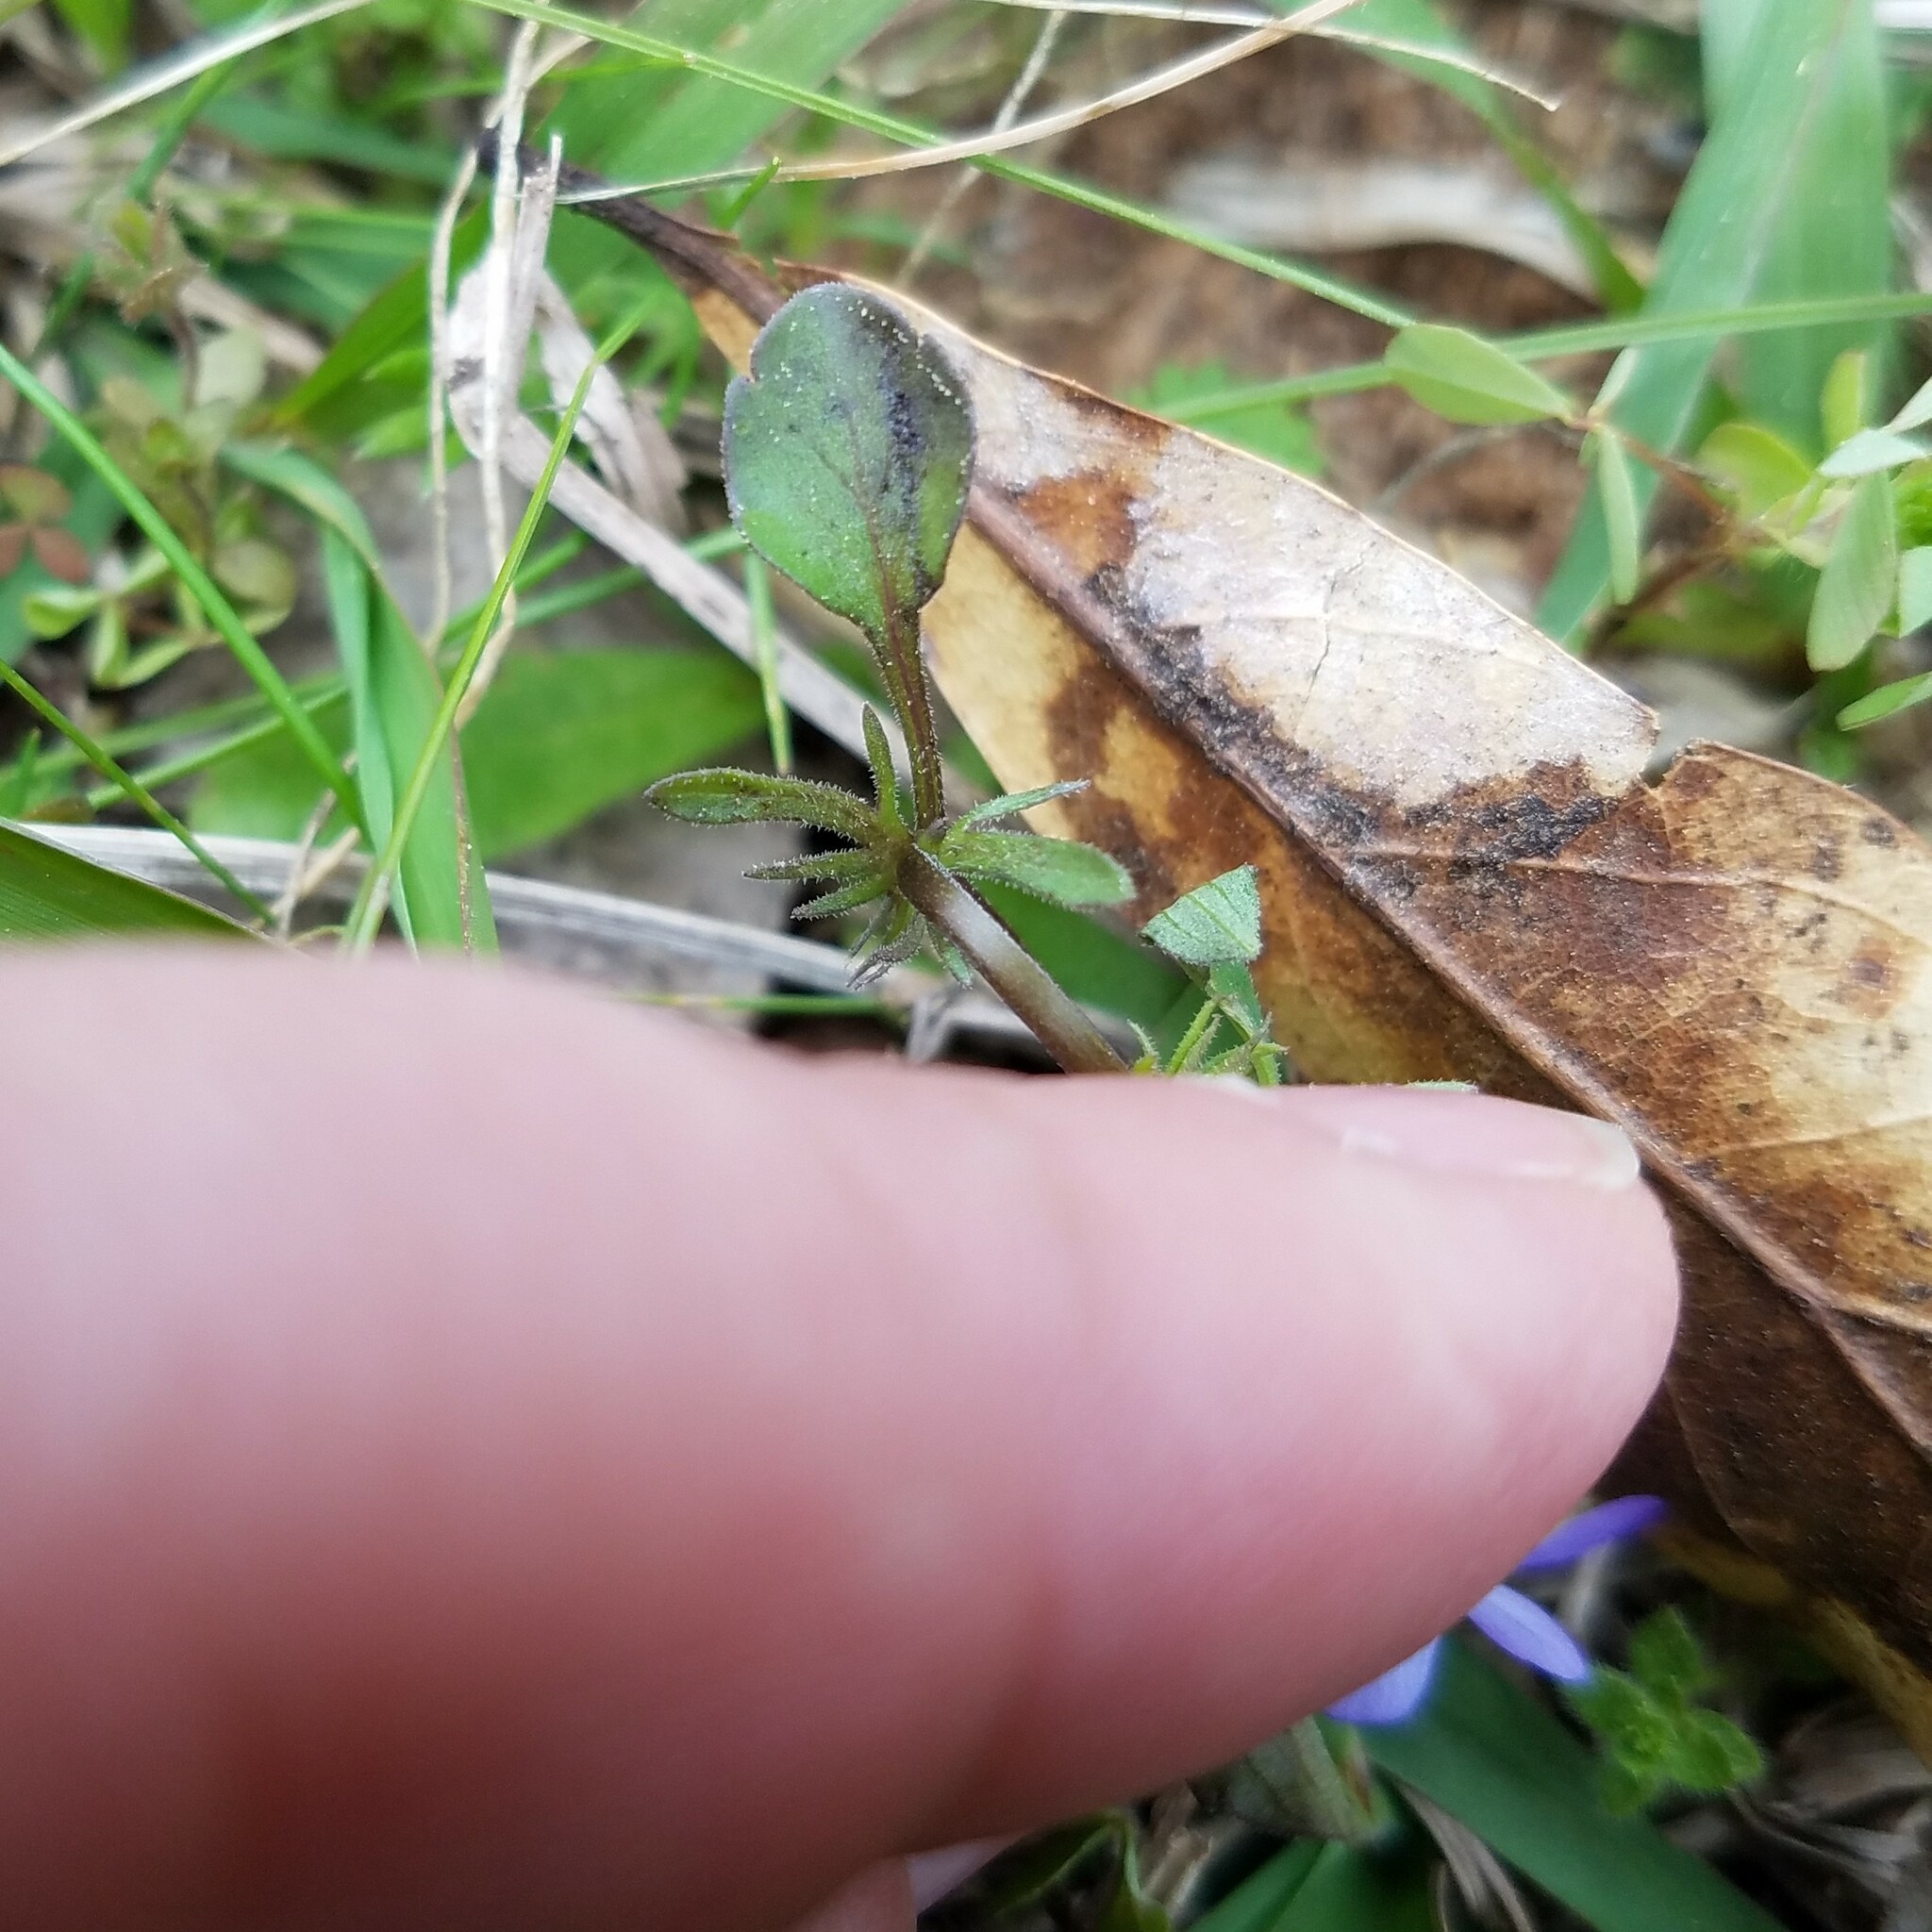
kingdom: Plantae
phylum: Tracheophyta
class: Magnoliopsida
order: Malpighiales
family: Violaceae
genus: Viola
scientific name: Viola rafinesquei
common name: American field pansy
